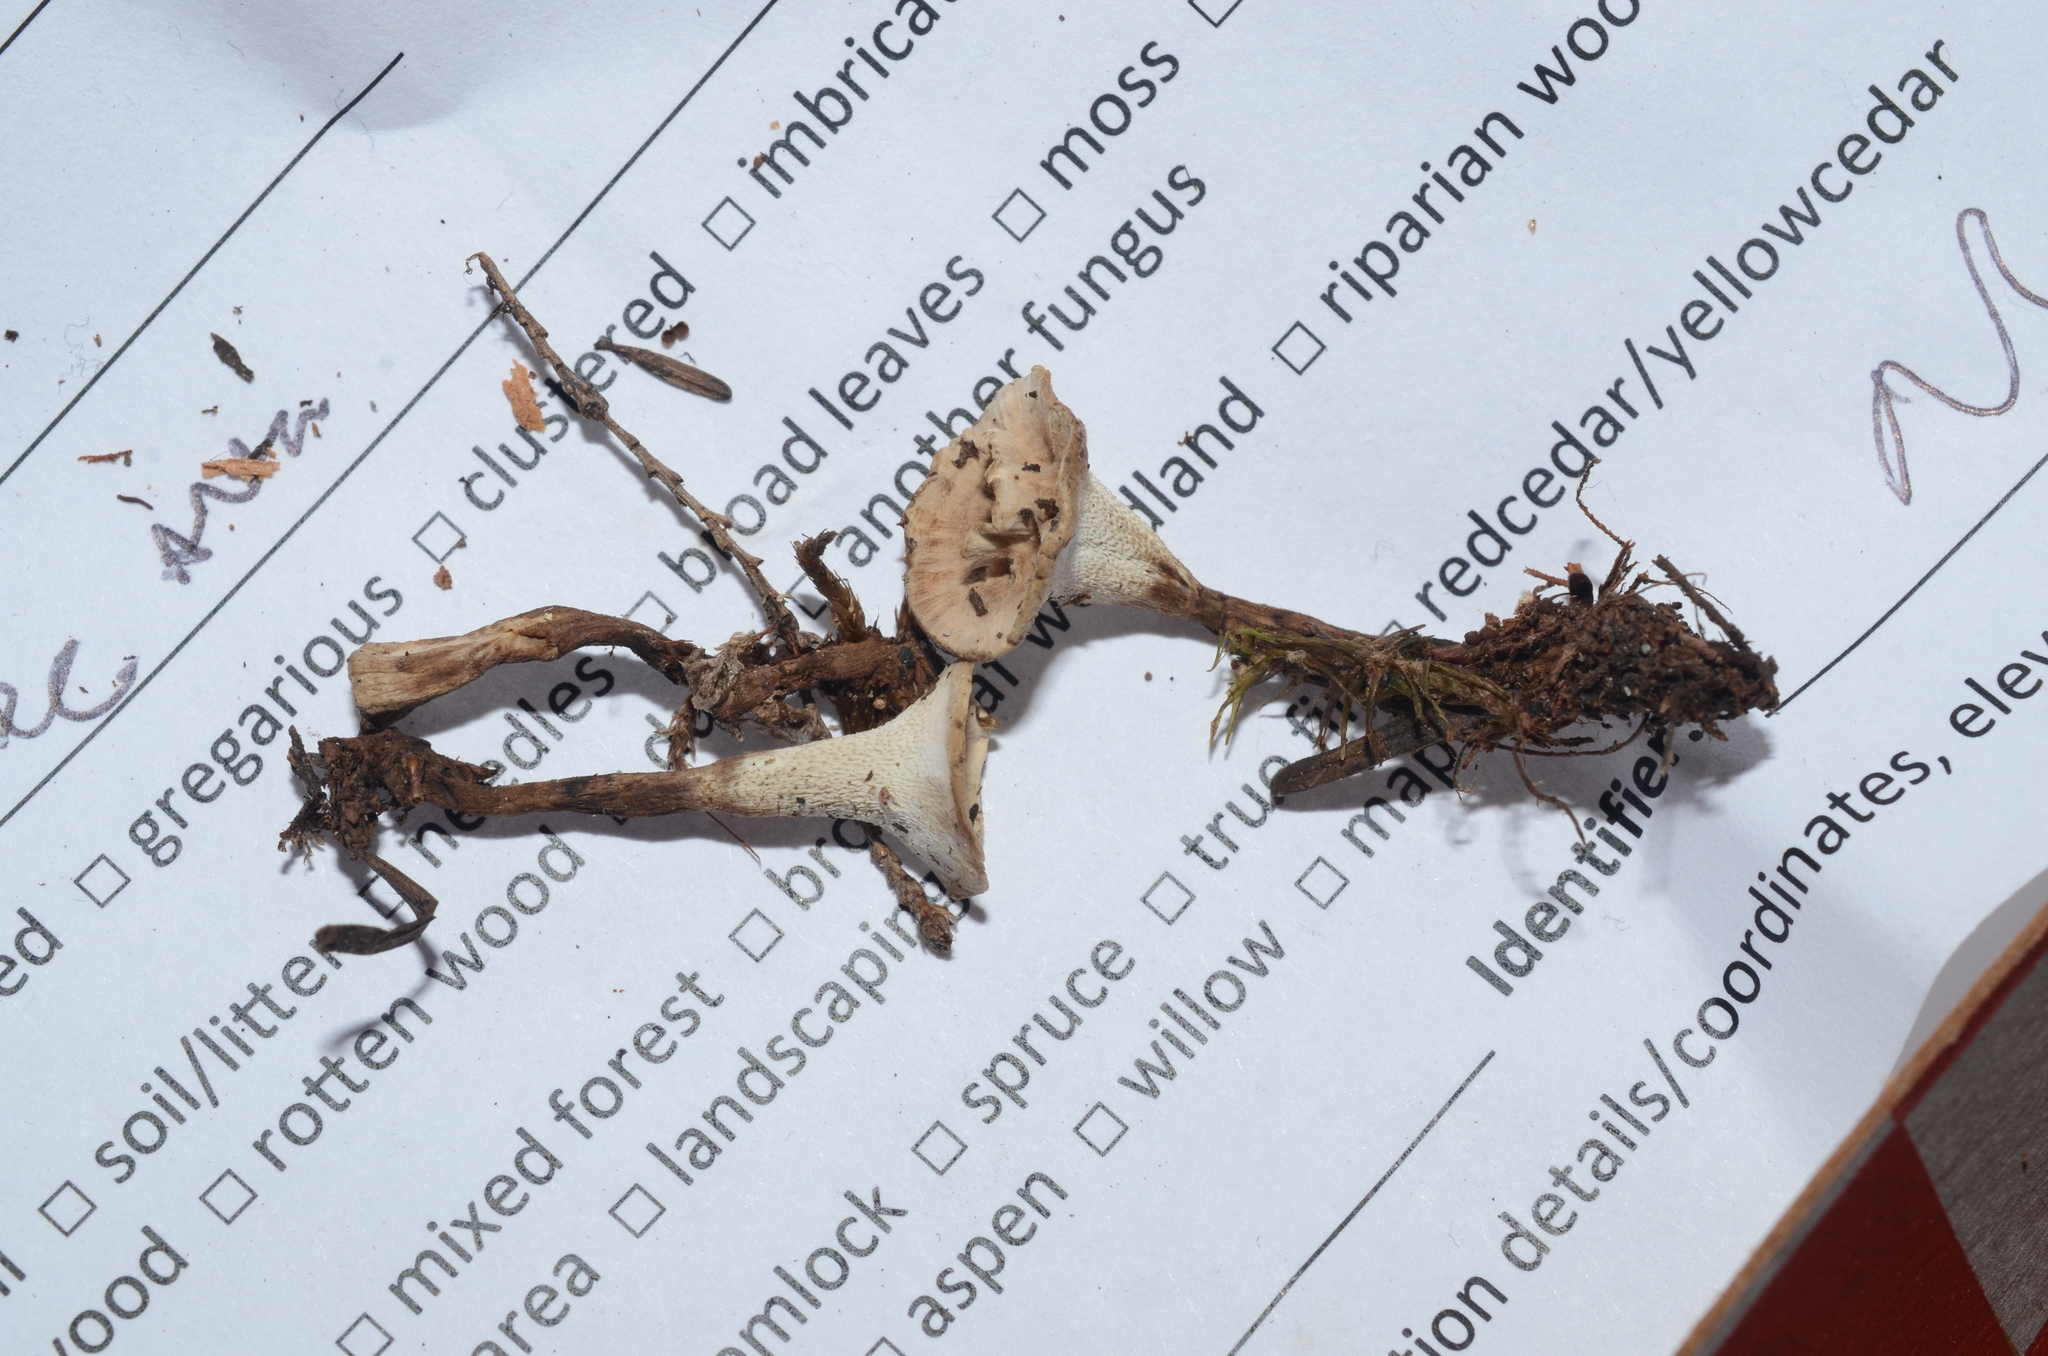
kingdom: Fungi
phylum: Basidiomycota
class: Agaricomycetes
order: Thelephorales
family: Thelephoraceae
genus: Phellodon
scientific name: Phellodon tomentosus
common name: Woolly tooth
